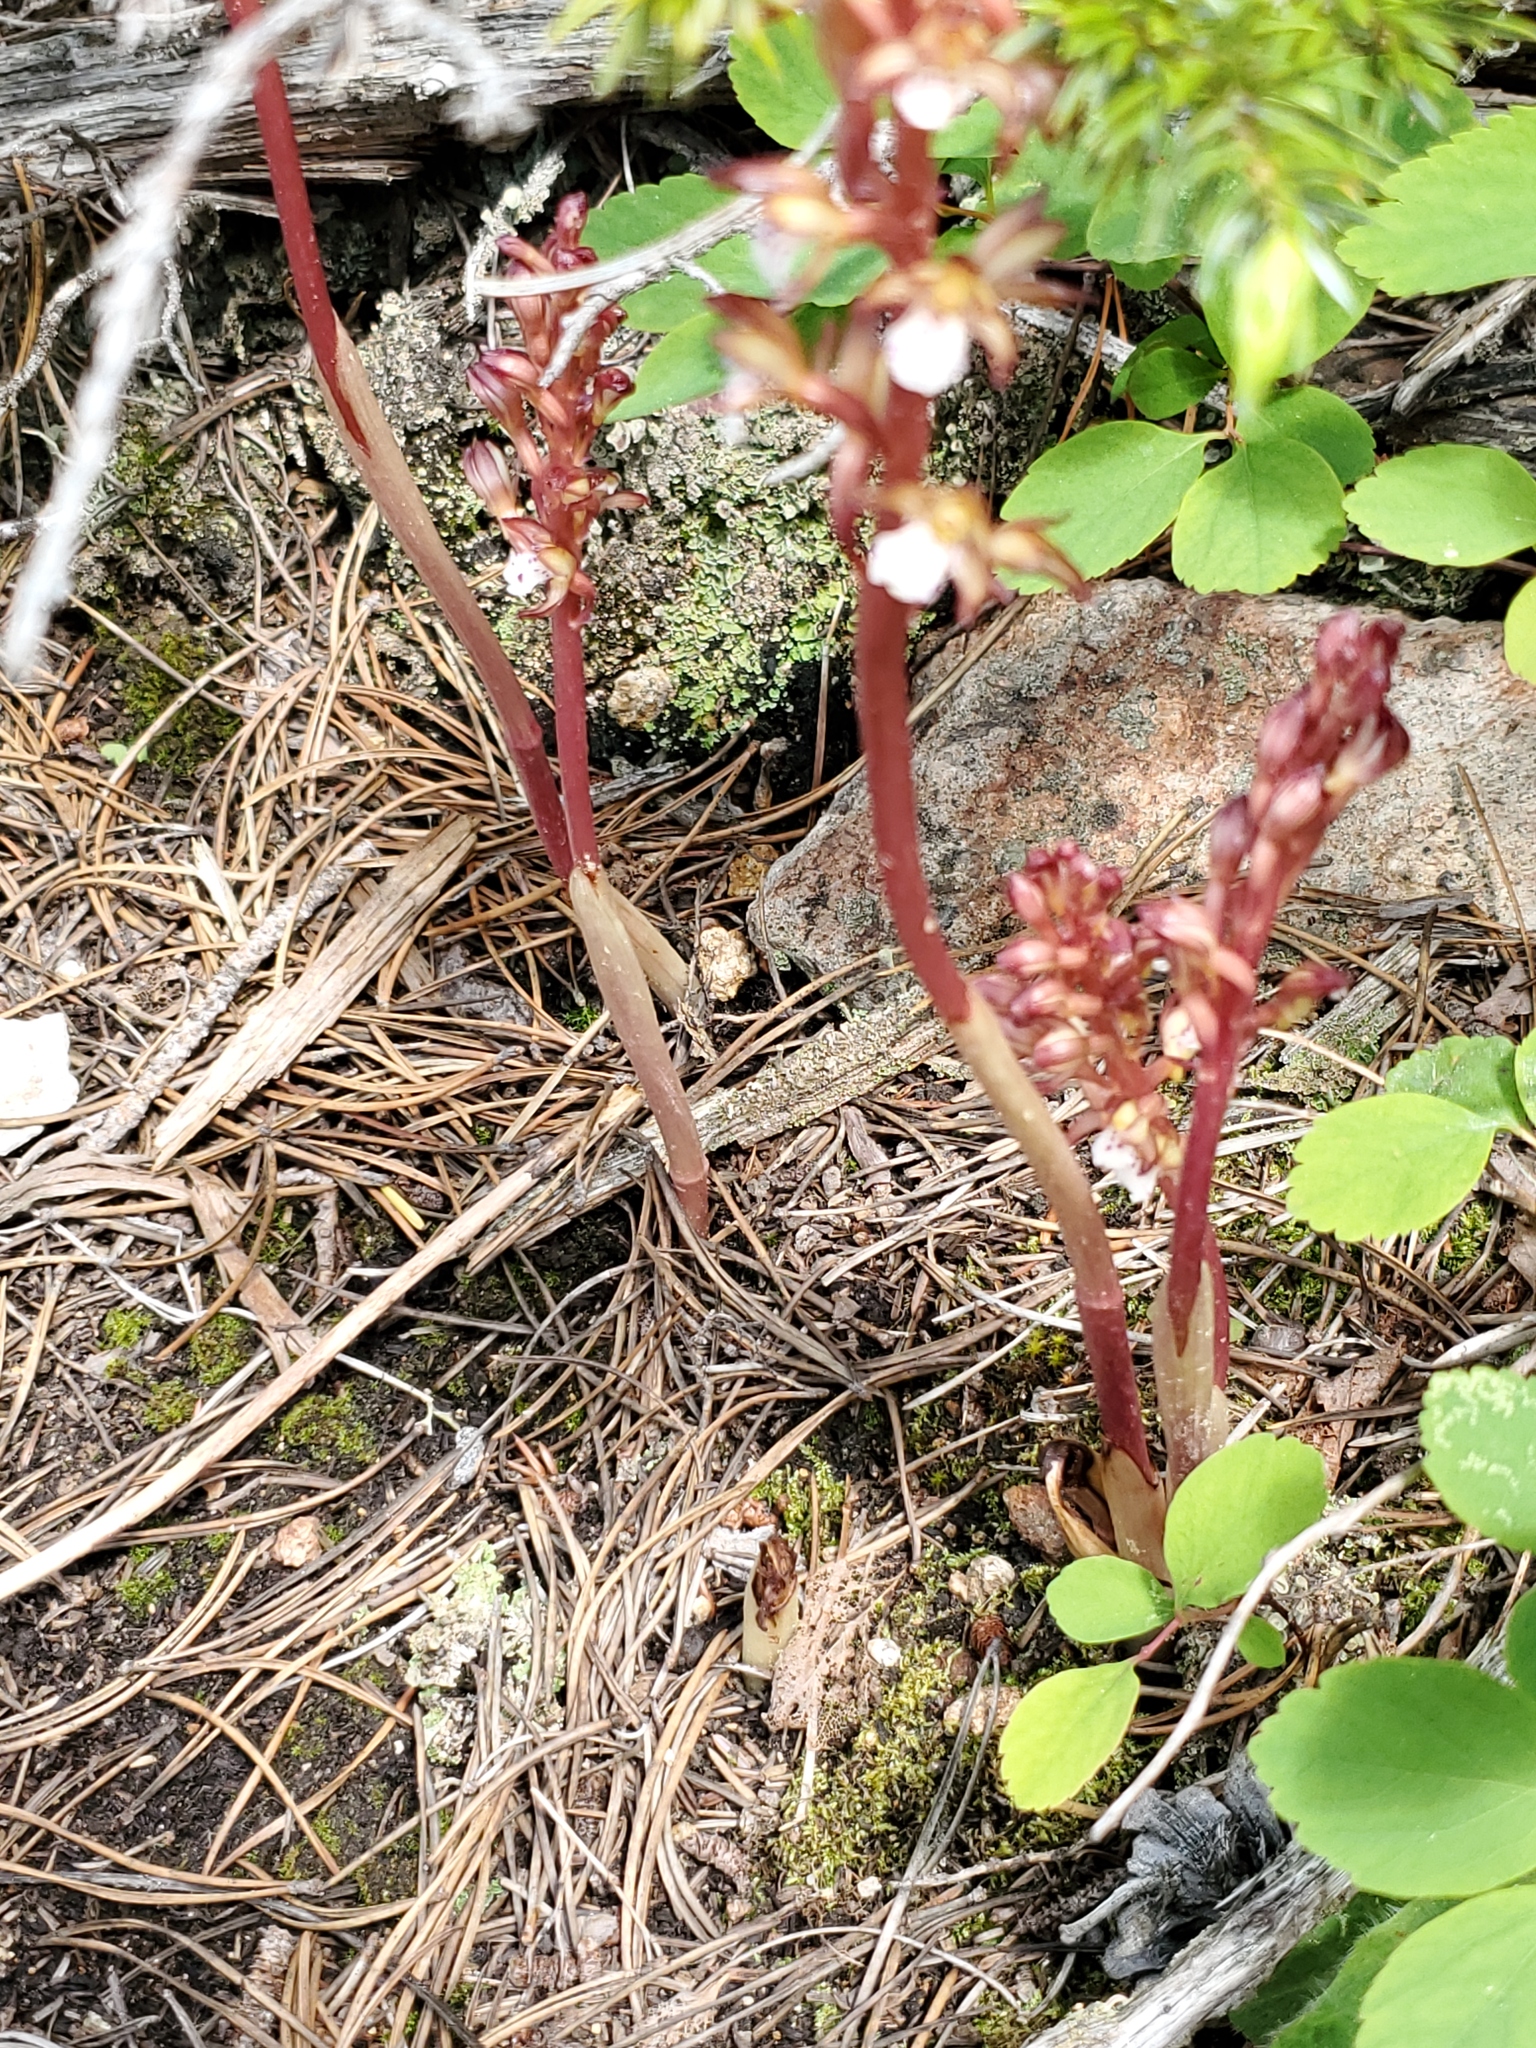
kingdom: Plantae
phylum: Tracheophyta
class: Liliopsida
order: Asparagales
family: Orchidaceae
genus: Corallorhiza
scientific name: Corallorhiza maculata
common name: Spotted coralroot
